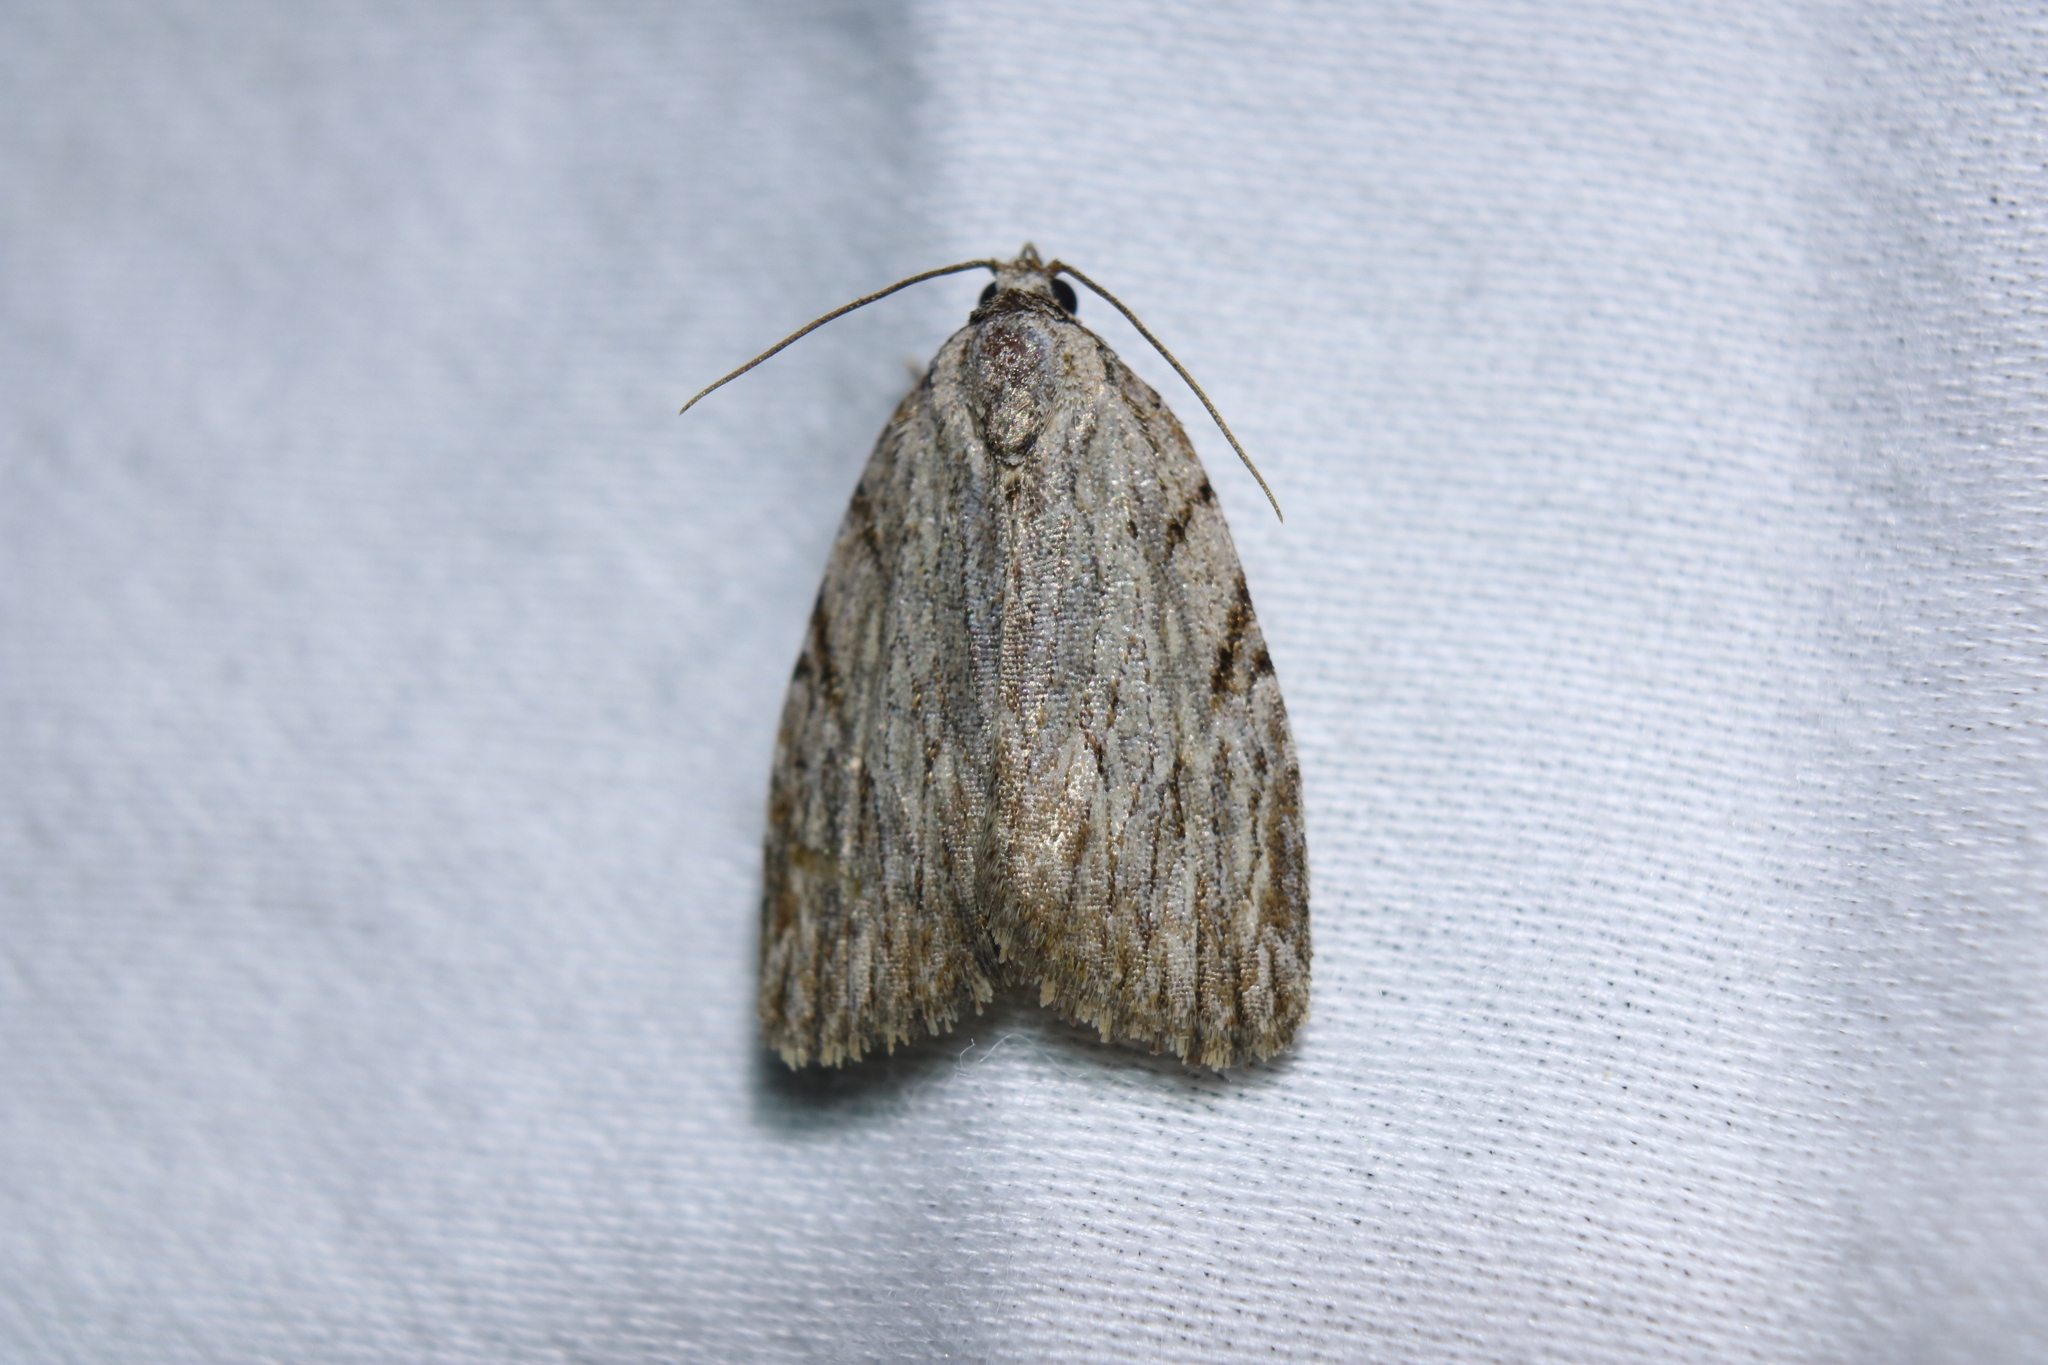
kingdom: Animalia
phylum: Arthropoda
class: Insecta
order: Lepidoptera
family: Noctuidae
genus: Balsa
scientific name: Balsa tristrigella
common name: Three-lined balsa moth
